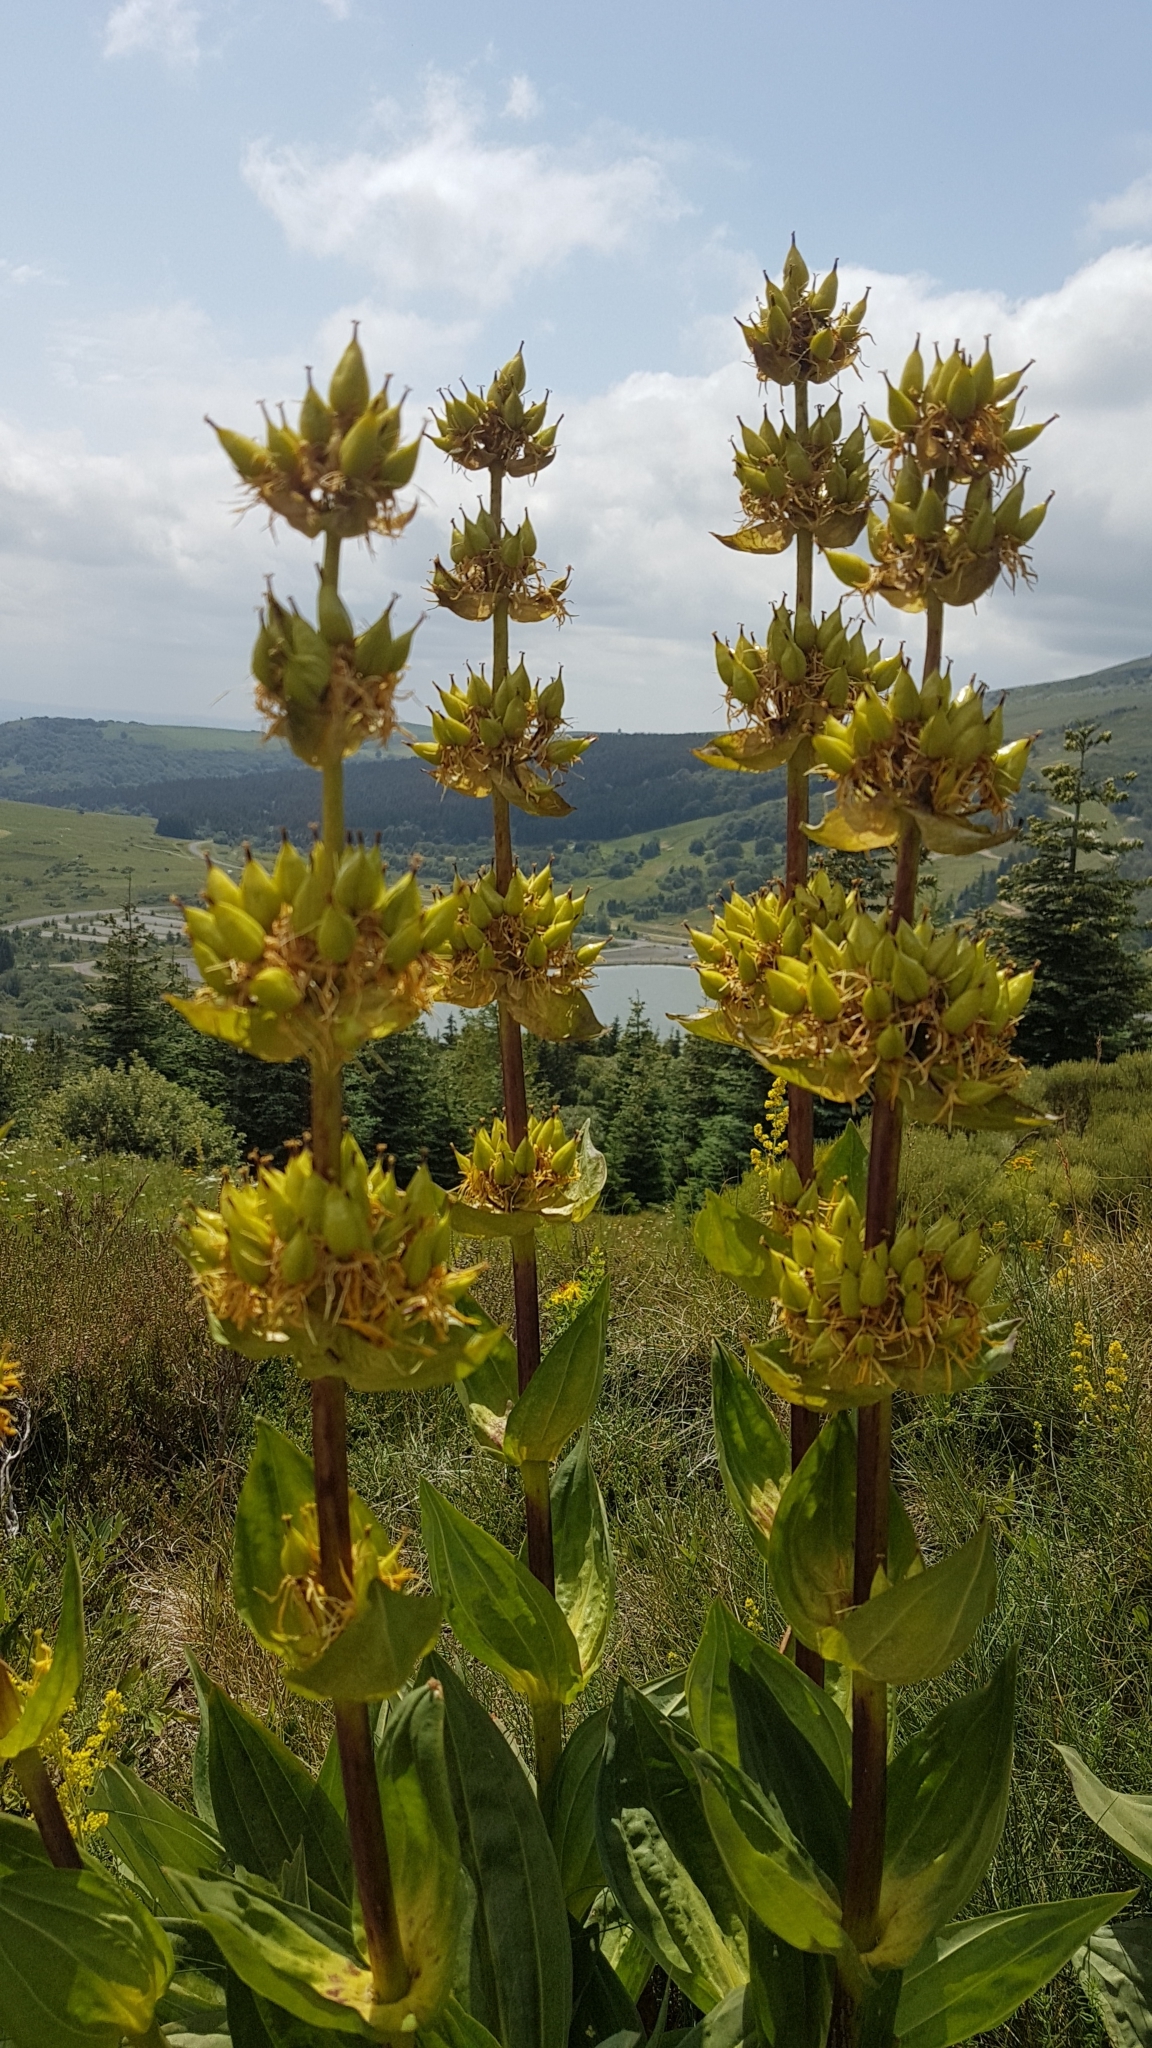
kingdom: Plantae
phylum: Tracheophyta
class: Magnoliopsida
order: Gentianales
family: Gentianaceae
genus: Gentiana
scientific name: Gentiana lutea
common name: Great yellow gentian
